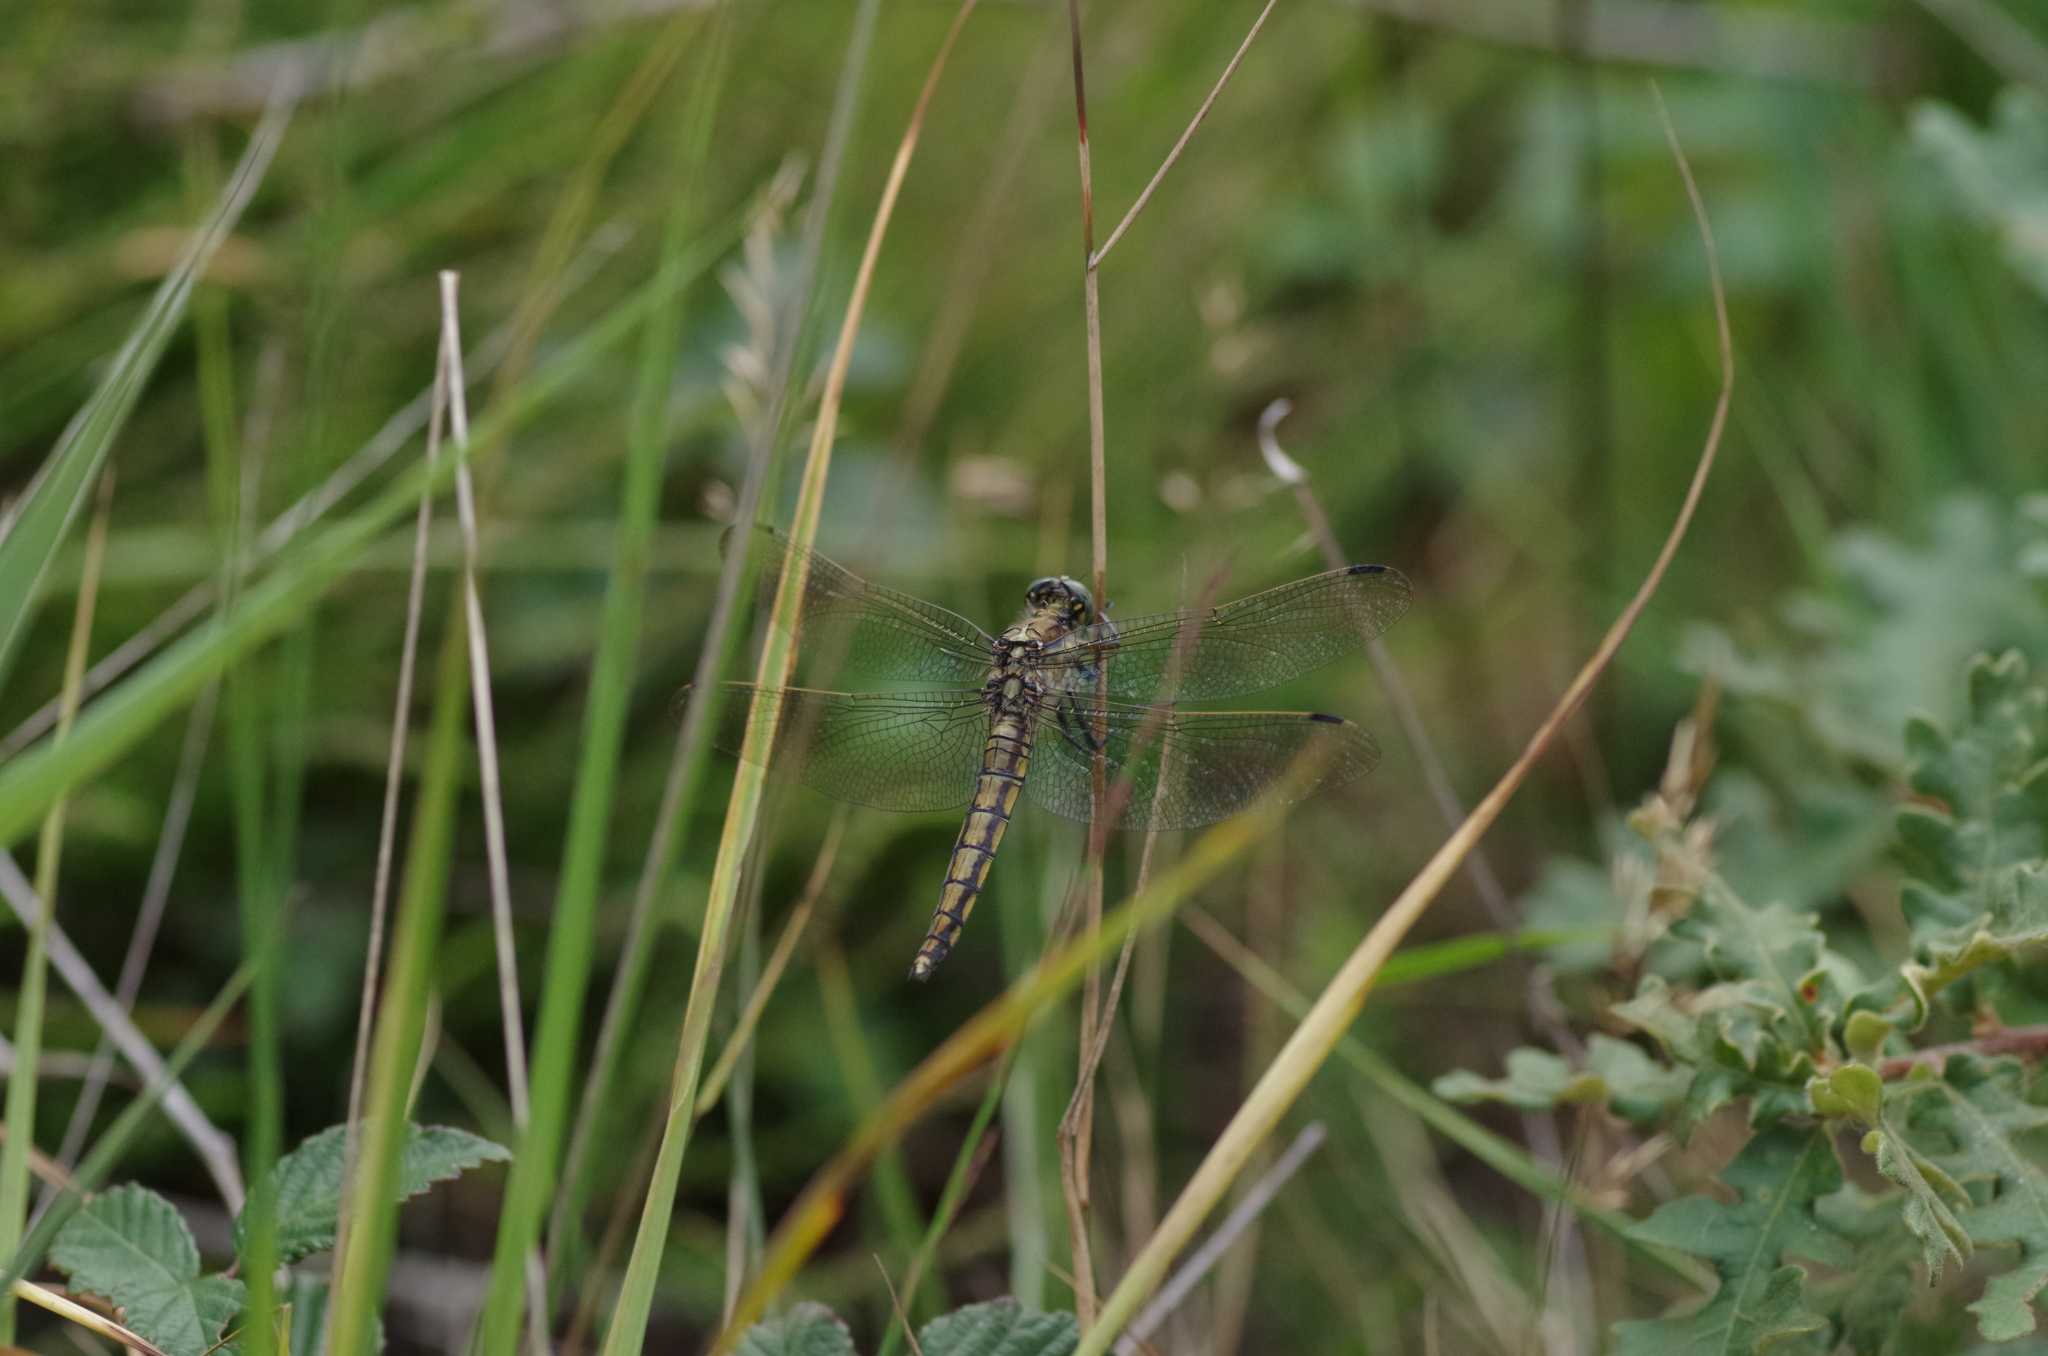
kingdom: Animalia
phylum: Arthropoda
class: Insecta
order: Odonata
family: Libellulidae
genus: Orthetrum
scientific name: Orthetrum cancellatum
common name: Black-tailed skimmer
